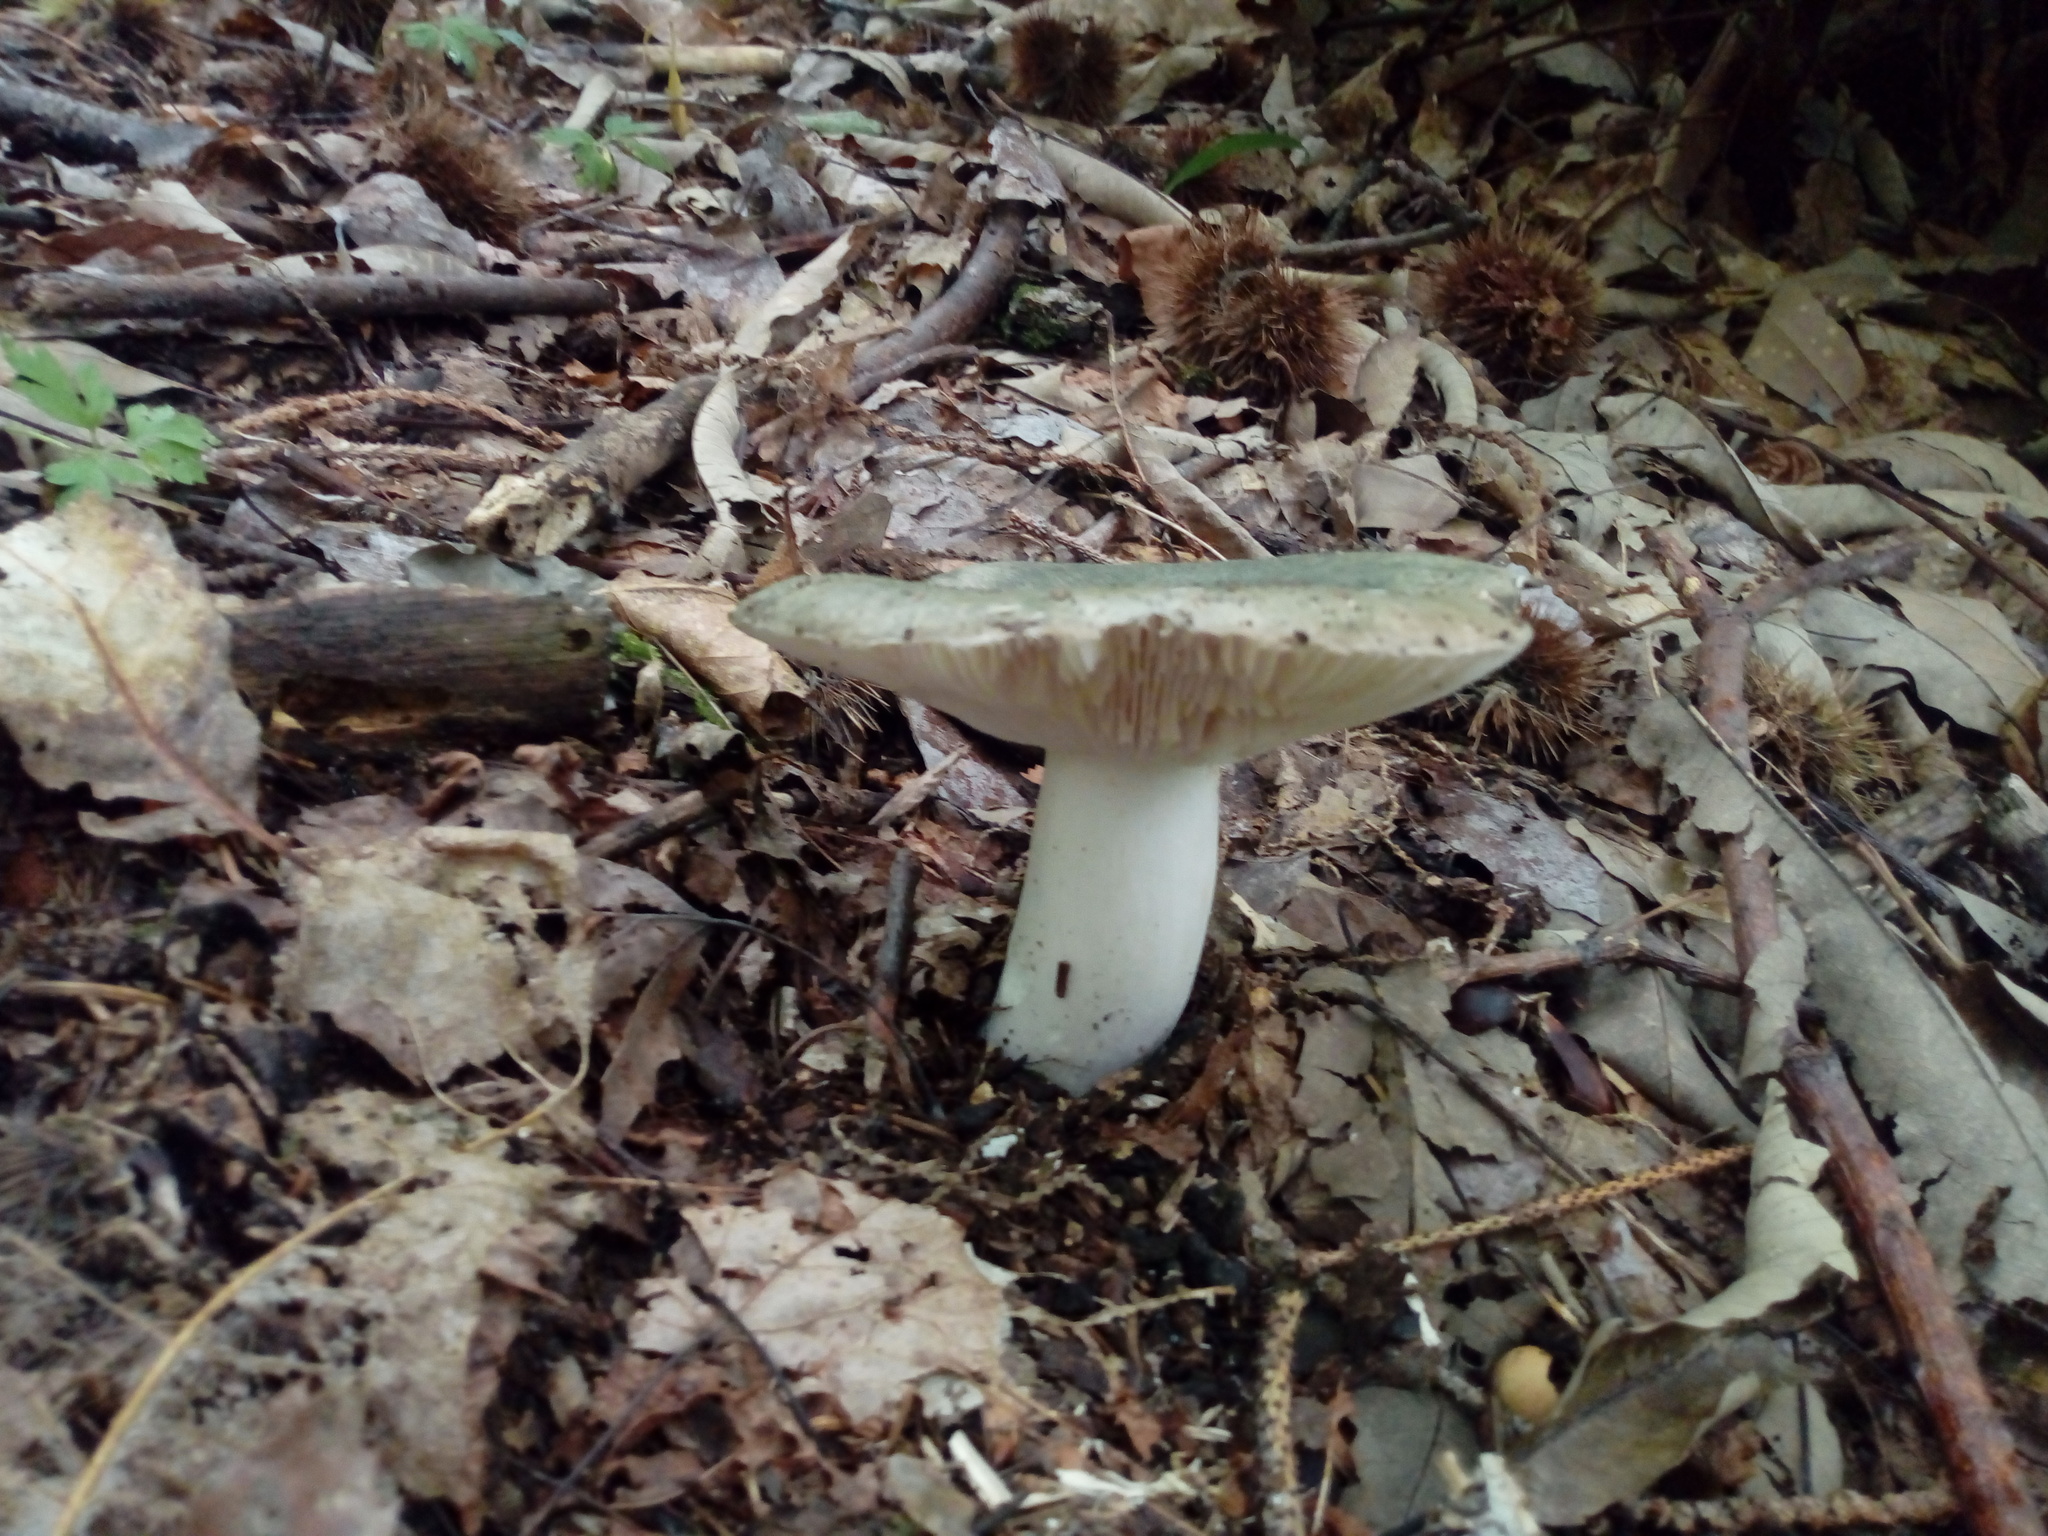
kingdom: Fungi
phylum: Basidiomycota
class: Agaricomycetes
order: Russulales
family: Russulaceae
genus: Russula
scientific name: Russula cyanoxantha
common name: Charcoal burner
